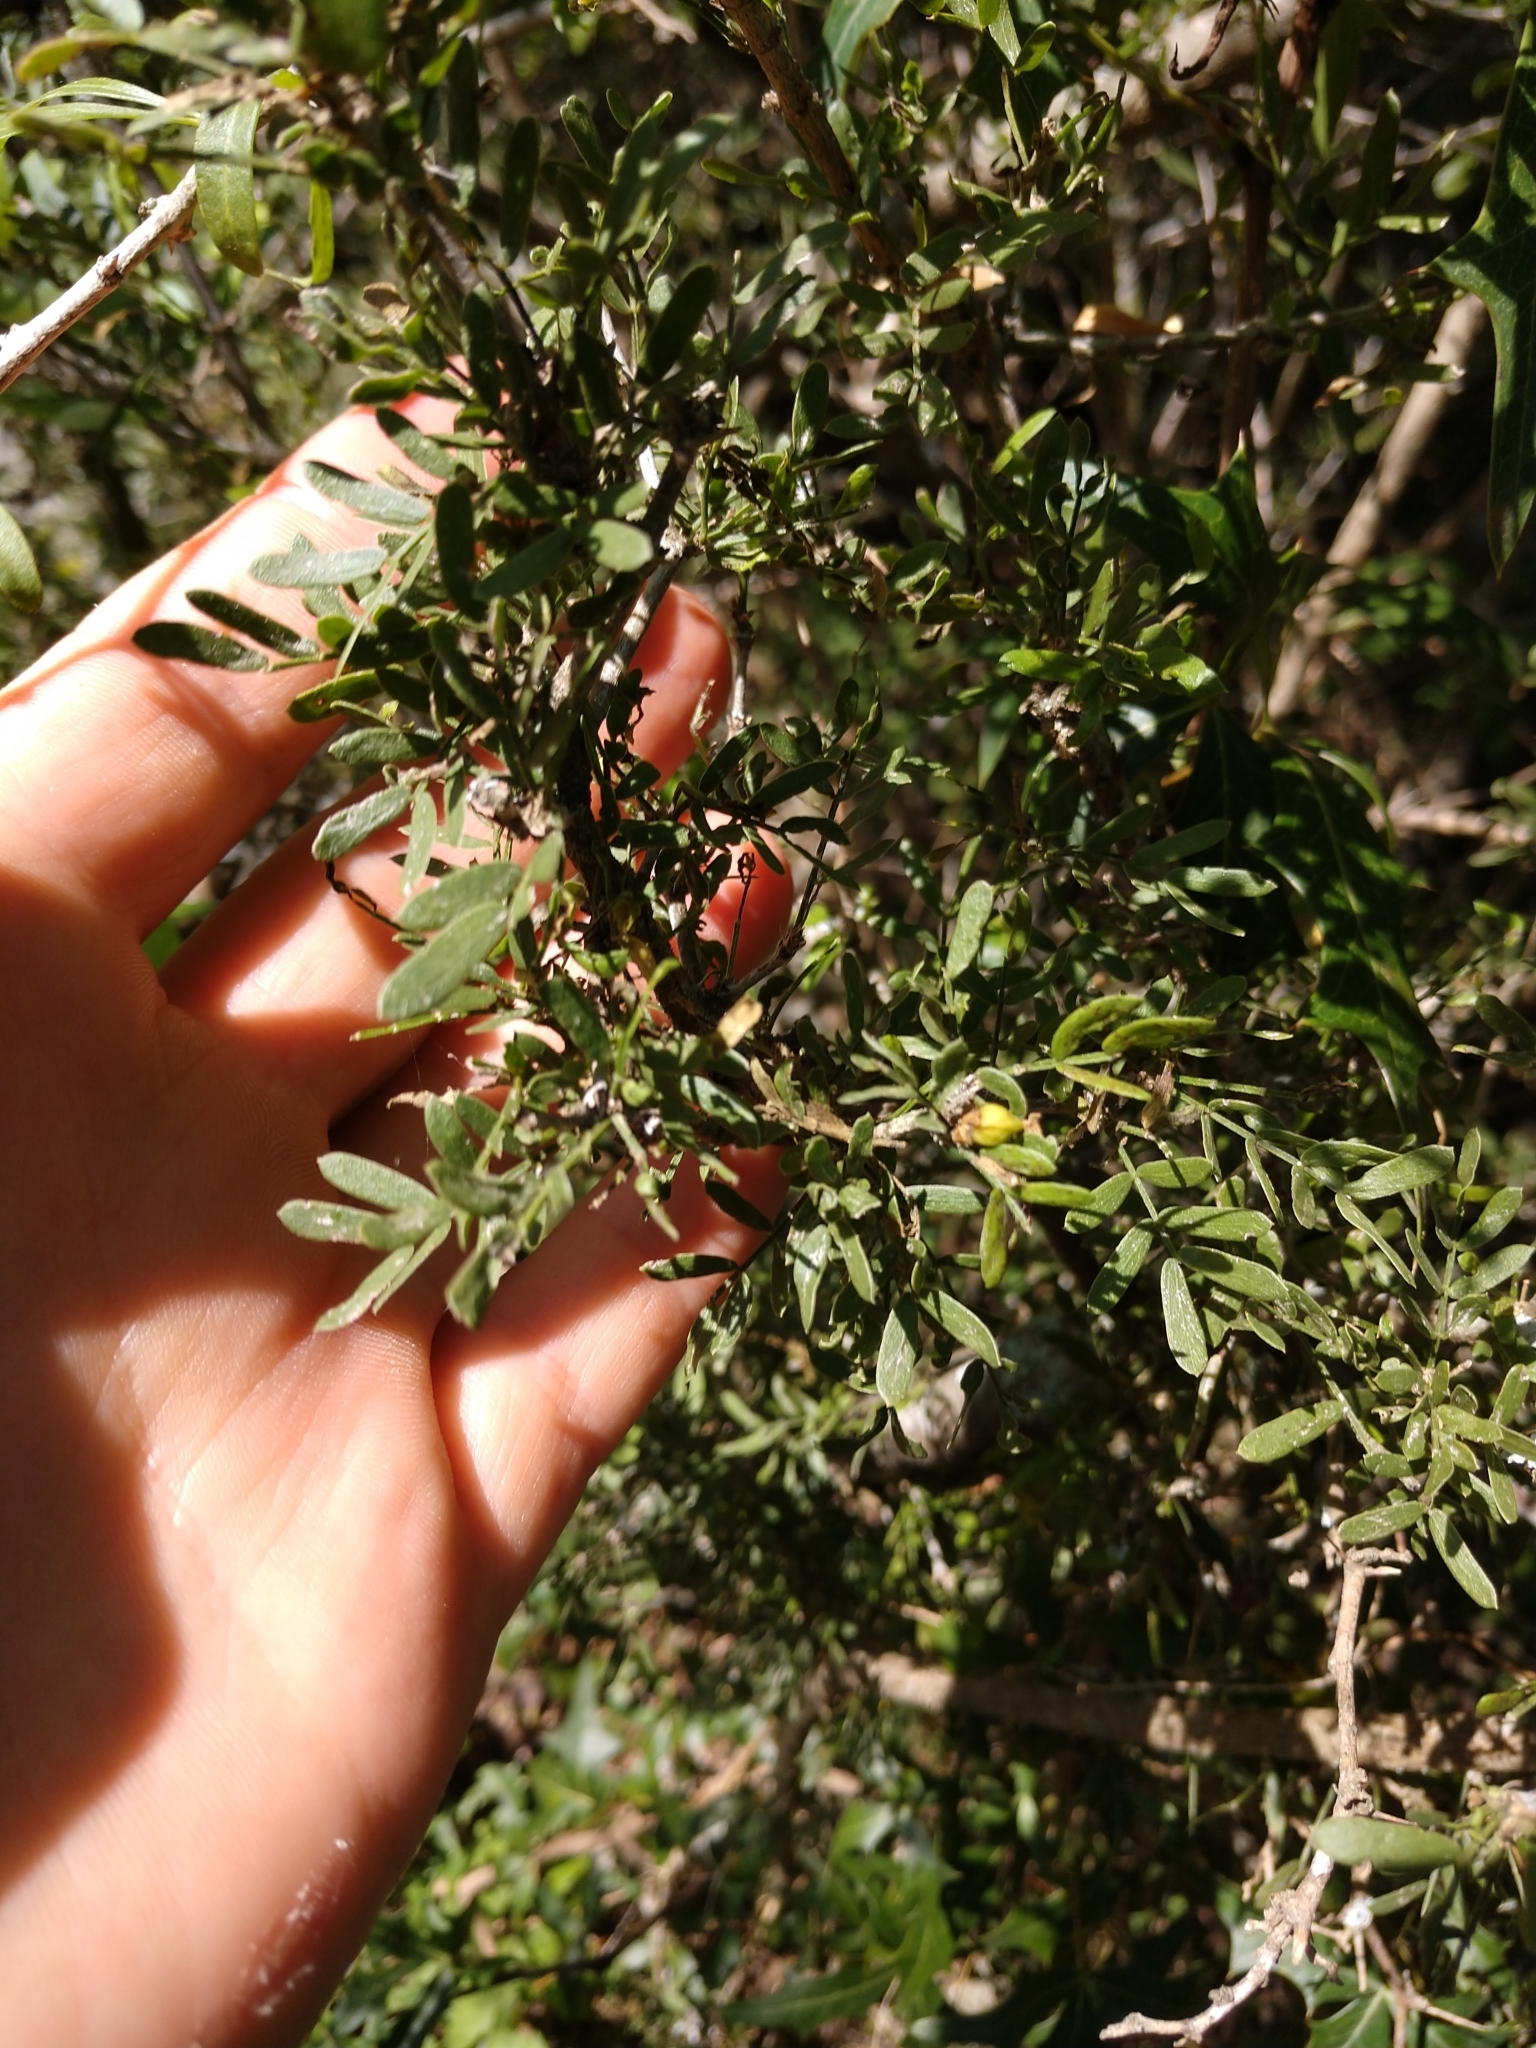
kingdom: Plantae
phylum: Tracheophyta
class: Magnoliopsida
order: Zygophyllales
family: Zygophyllaceae
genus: Porlieria
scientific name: Porlieria angustifolia
